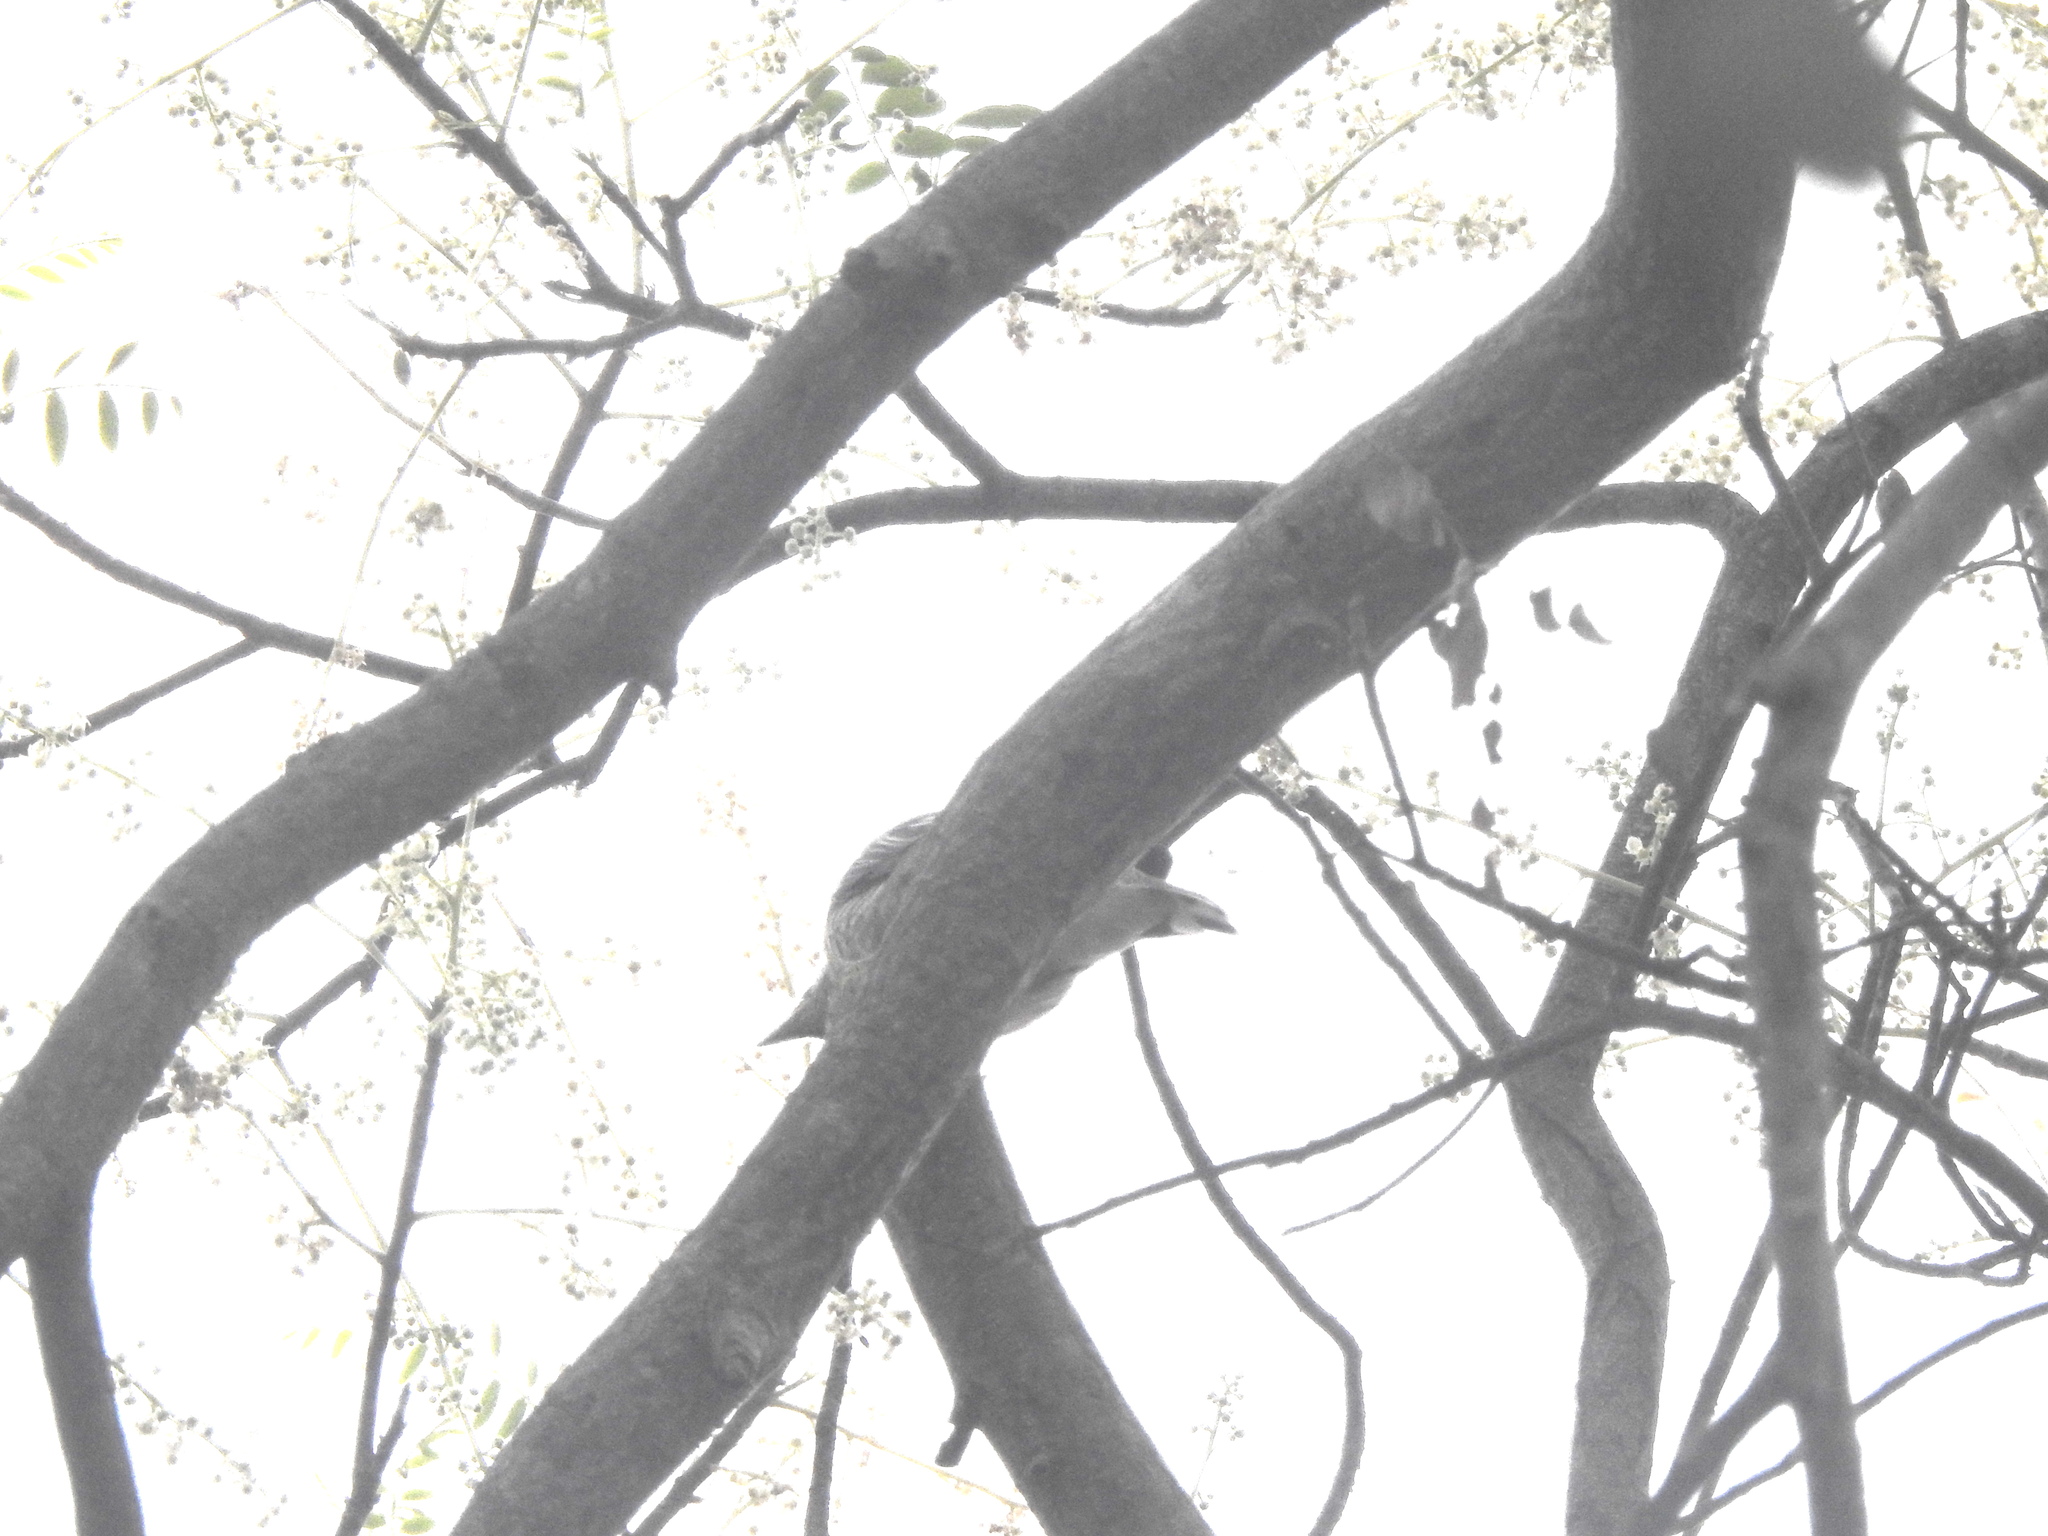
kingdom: Animalia
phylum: Chordata
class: Aves
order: Passeriformes
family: Campephagidae
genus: Coracina
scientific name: Coracina melanoptera
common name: Black-headed cuckooshrike
